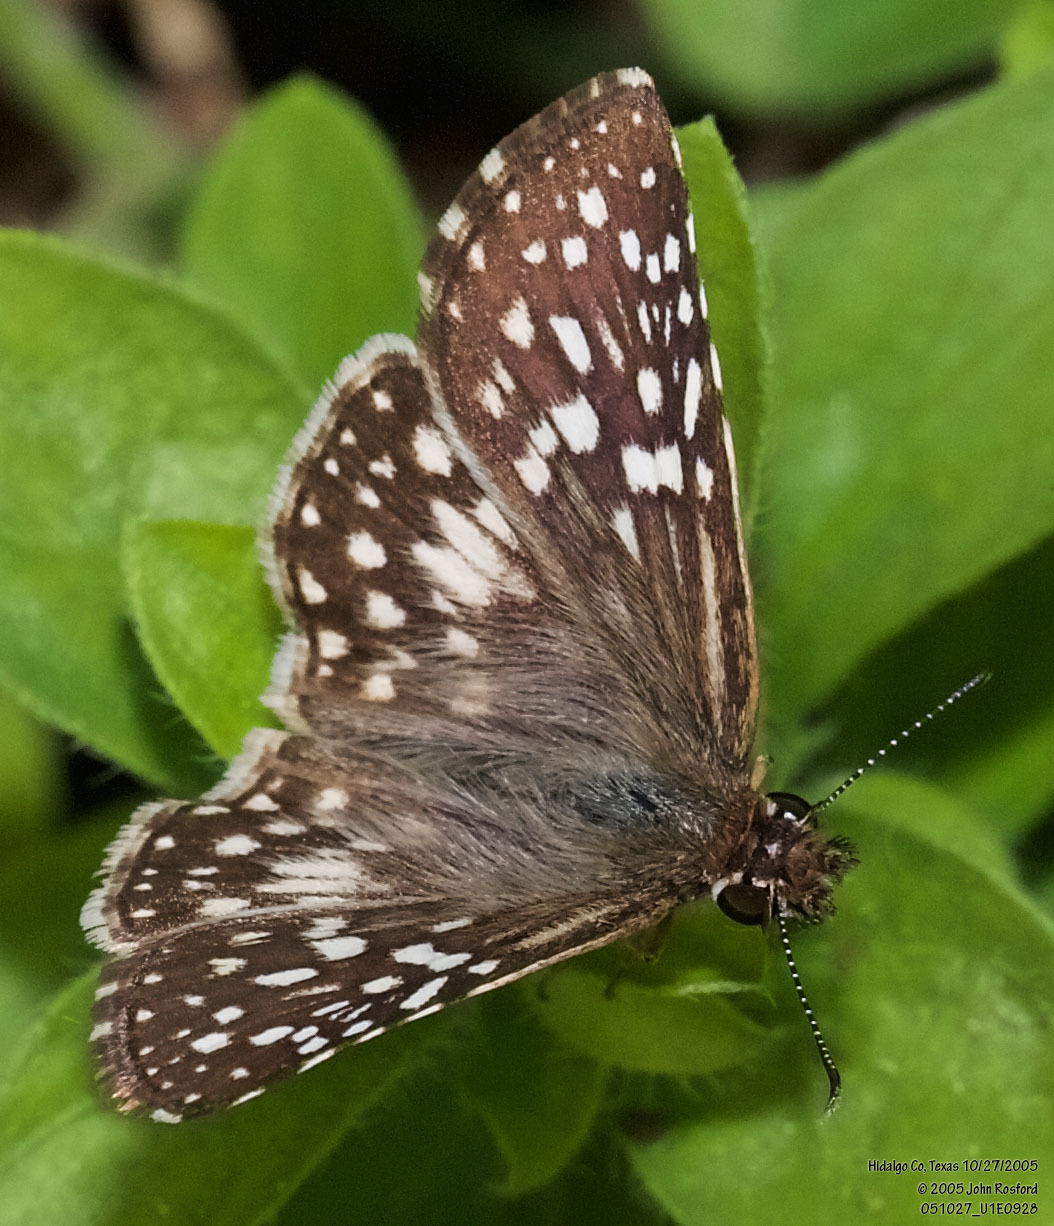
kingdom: Animalia
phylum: Arthropoda
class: Insecta
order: Lepidoptera
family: Hesperiidae
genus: Pyrgus
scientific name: Pyrgus oileus
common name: Tropical checkered-skipper
